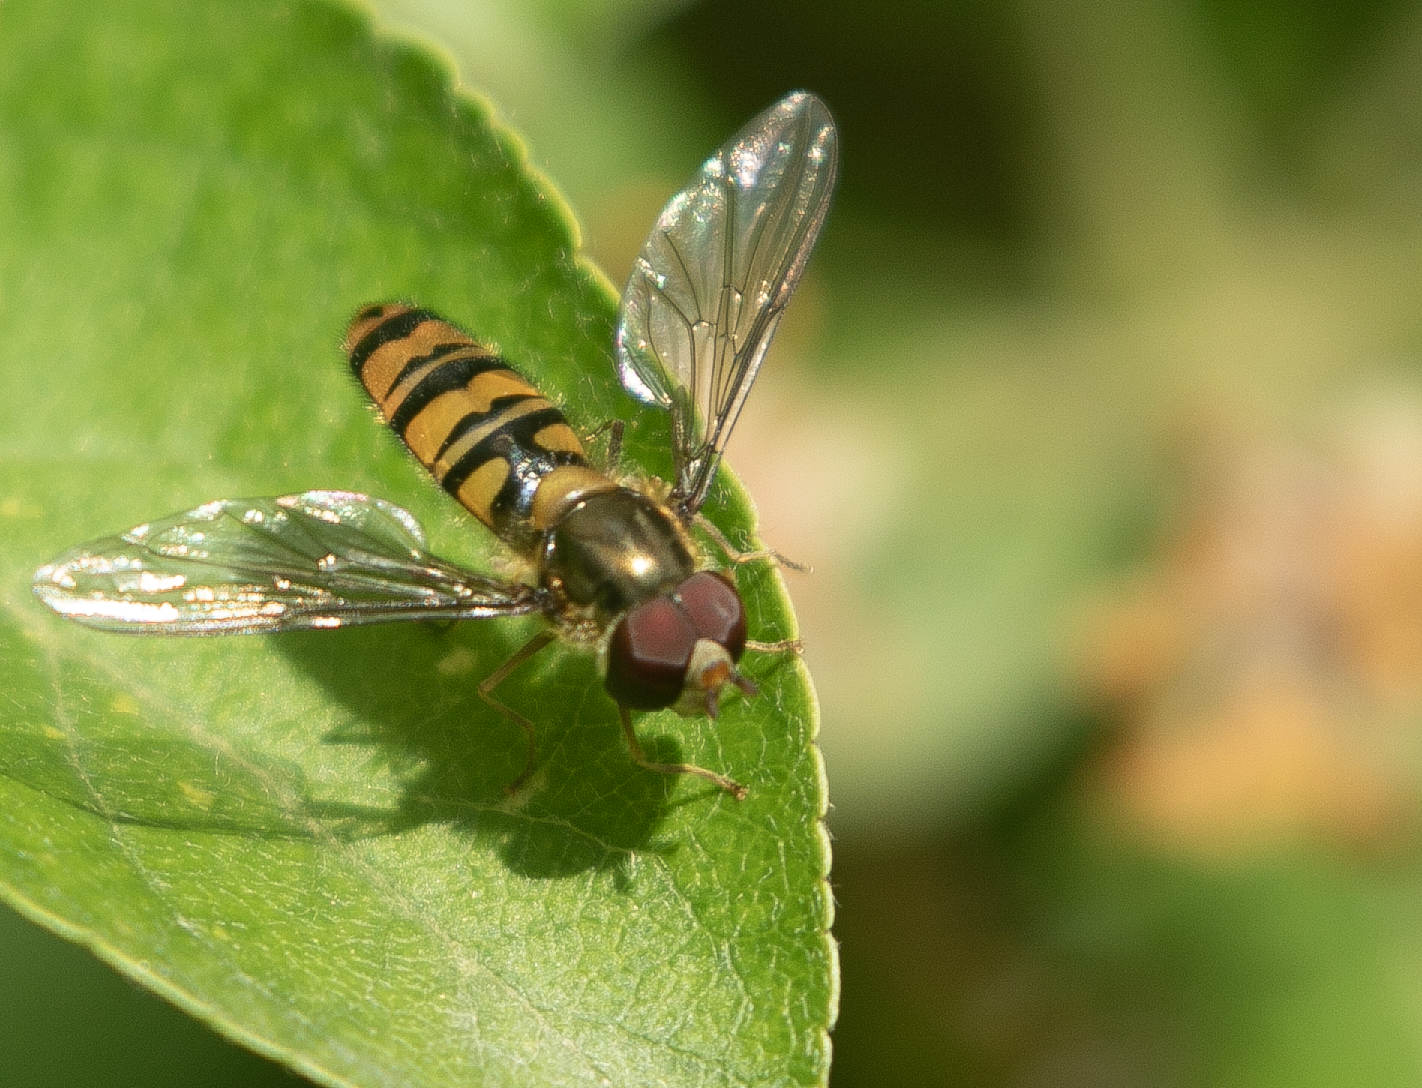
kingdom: Animalia
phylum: Arthropoda
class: Insecta
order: Diptera
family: Syrphidae
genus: Episyrphus
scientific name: Episyrphus balteatus
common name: Marmalade hoverfly
